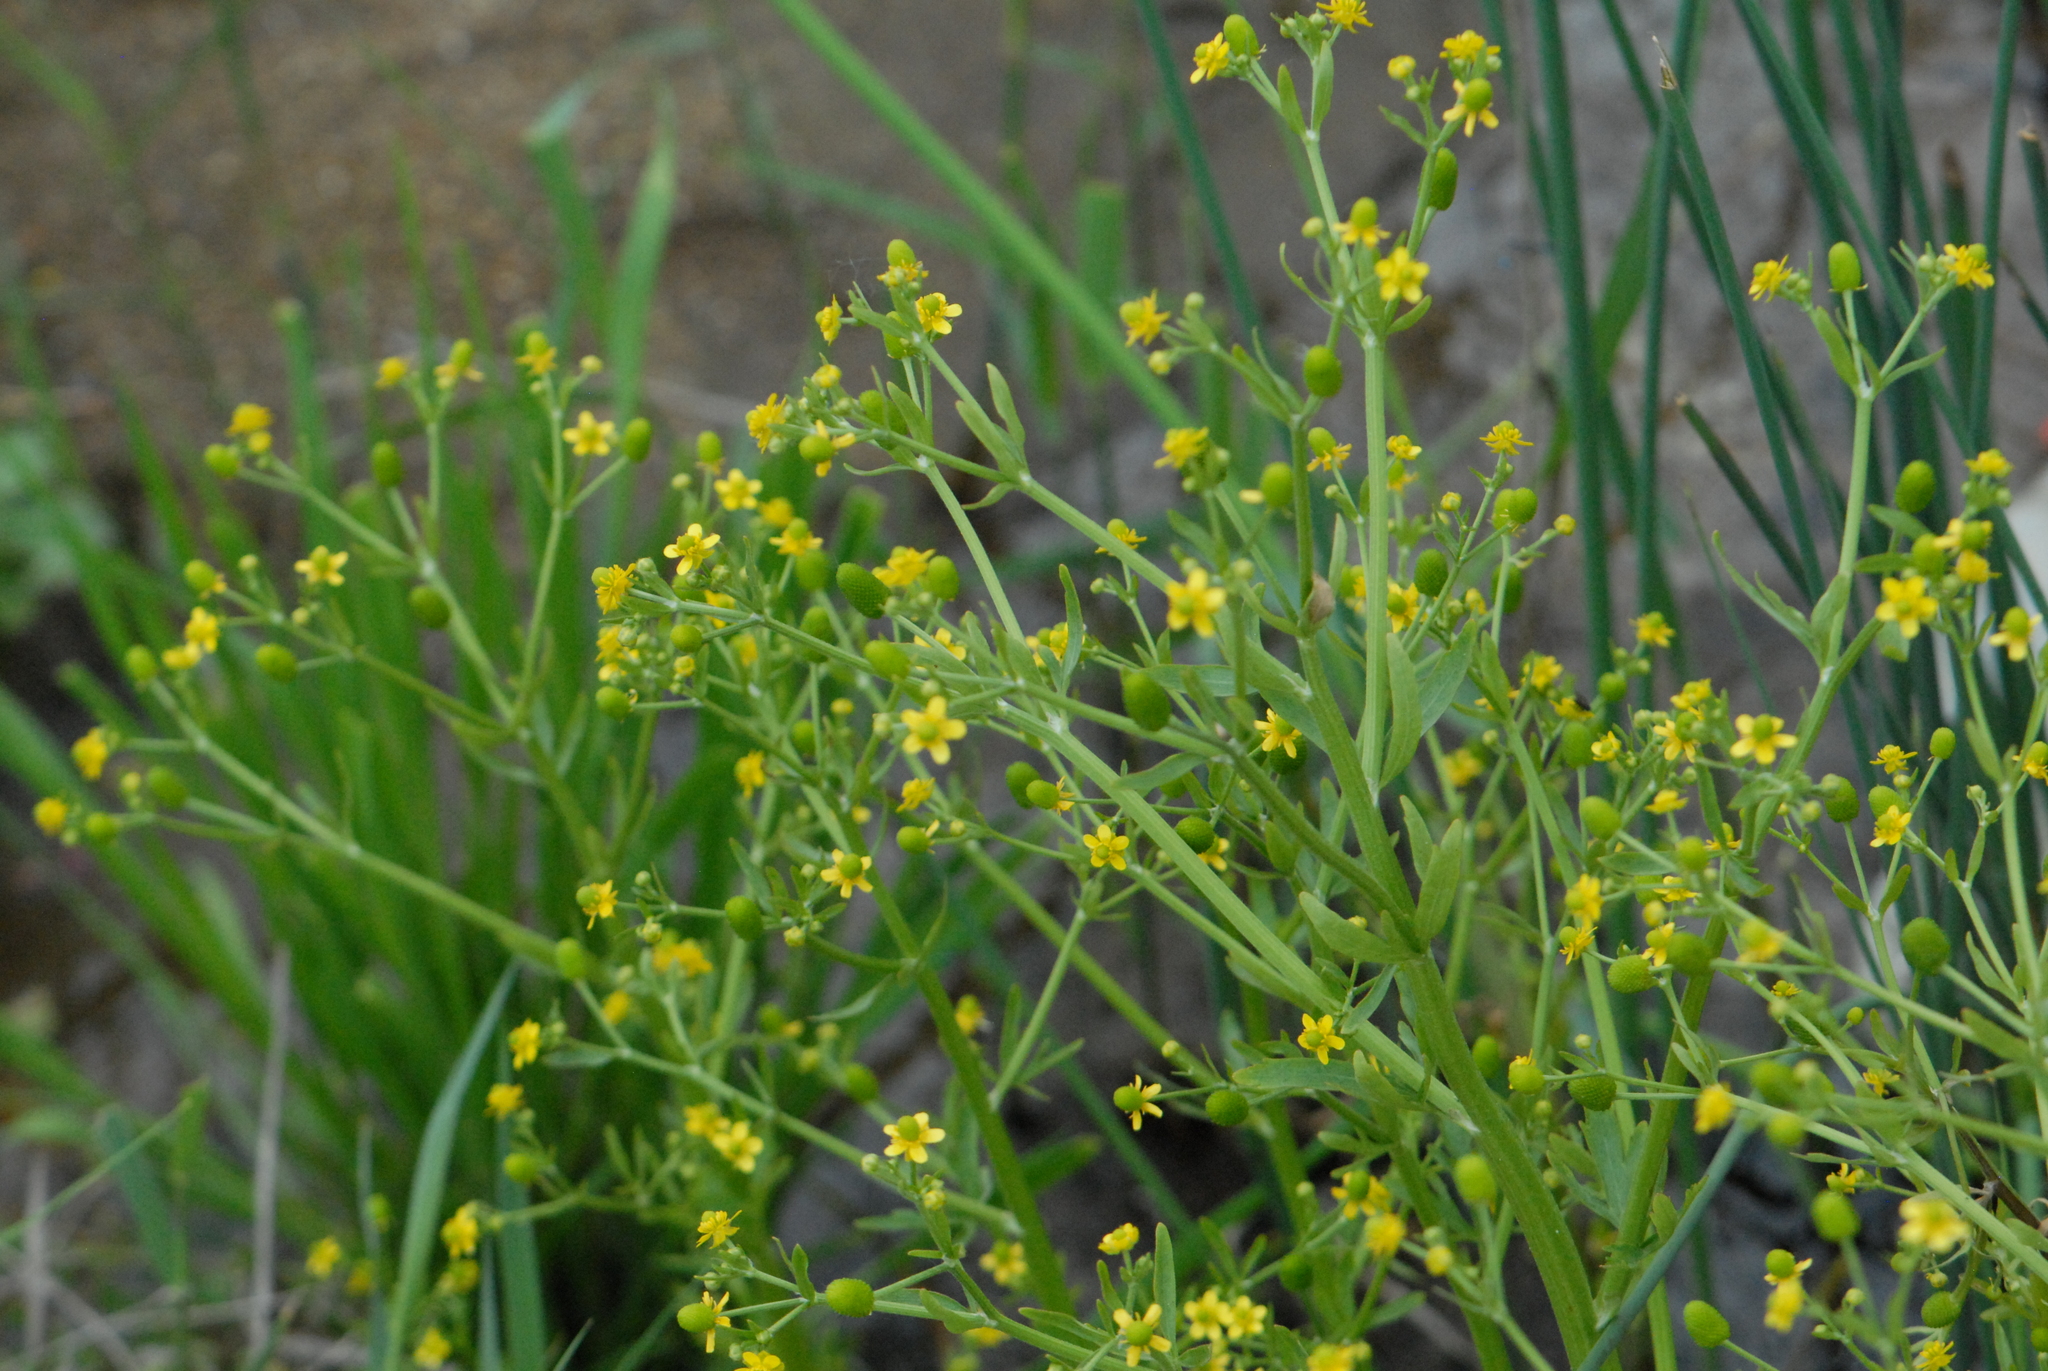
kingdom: Plantae
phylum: Tracheophyta
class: Magnoliopsida
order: Ranunculales
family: Ranunculaceae
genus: Ranunculus
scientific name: Ranunculus sceleratus
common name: Celery-leaved buttercup
